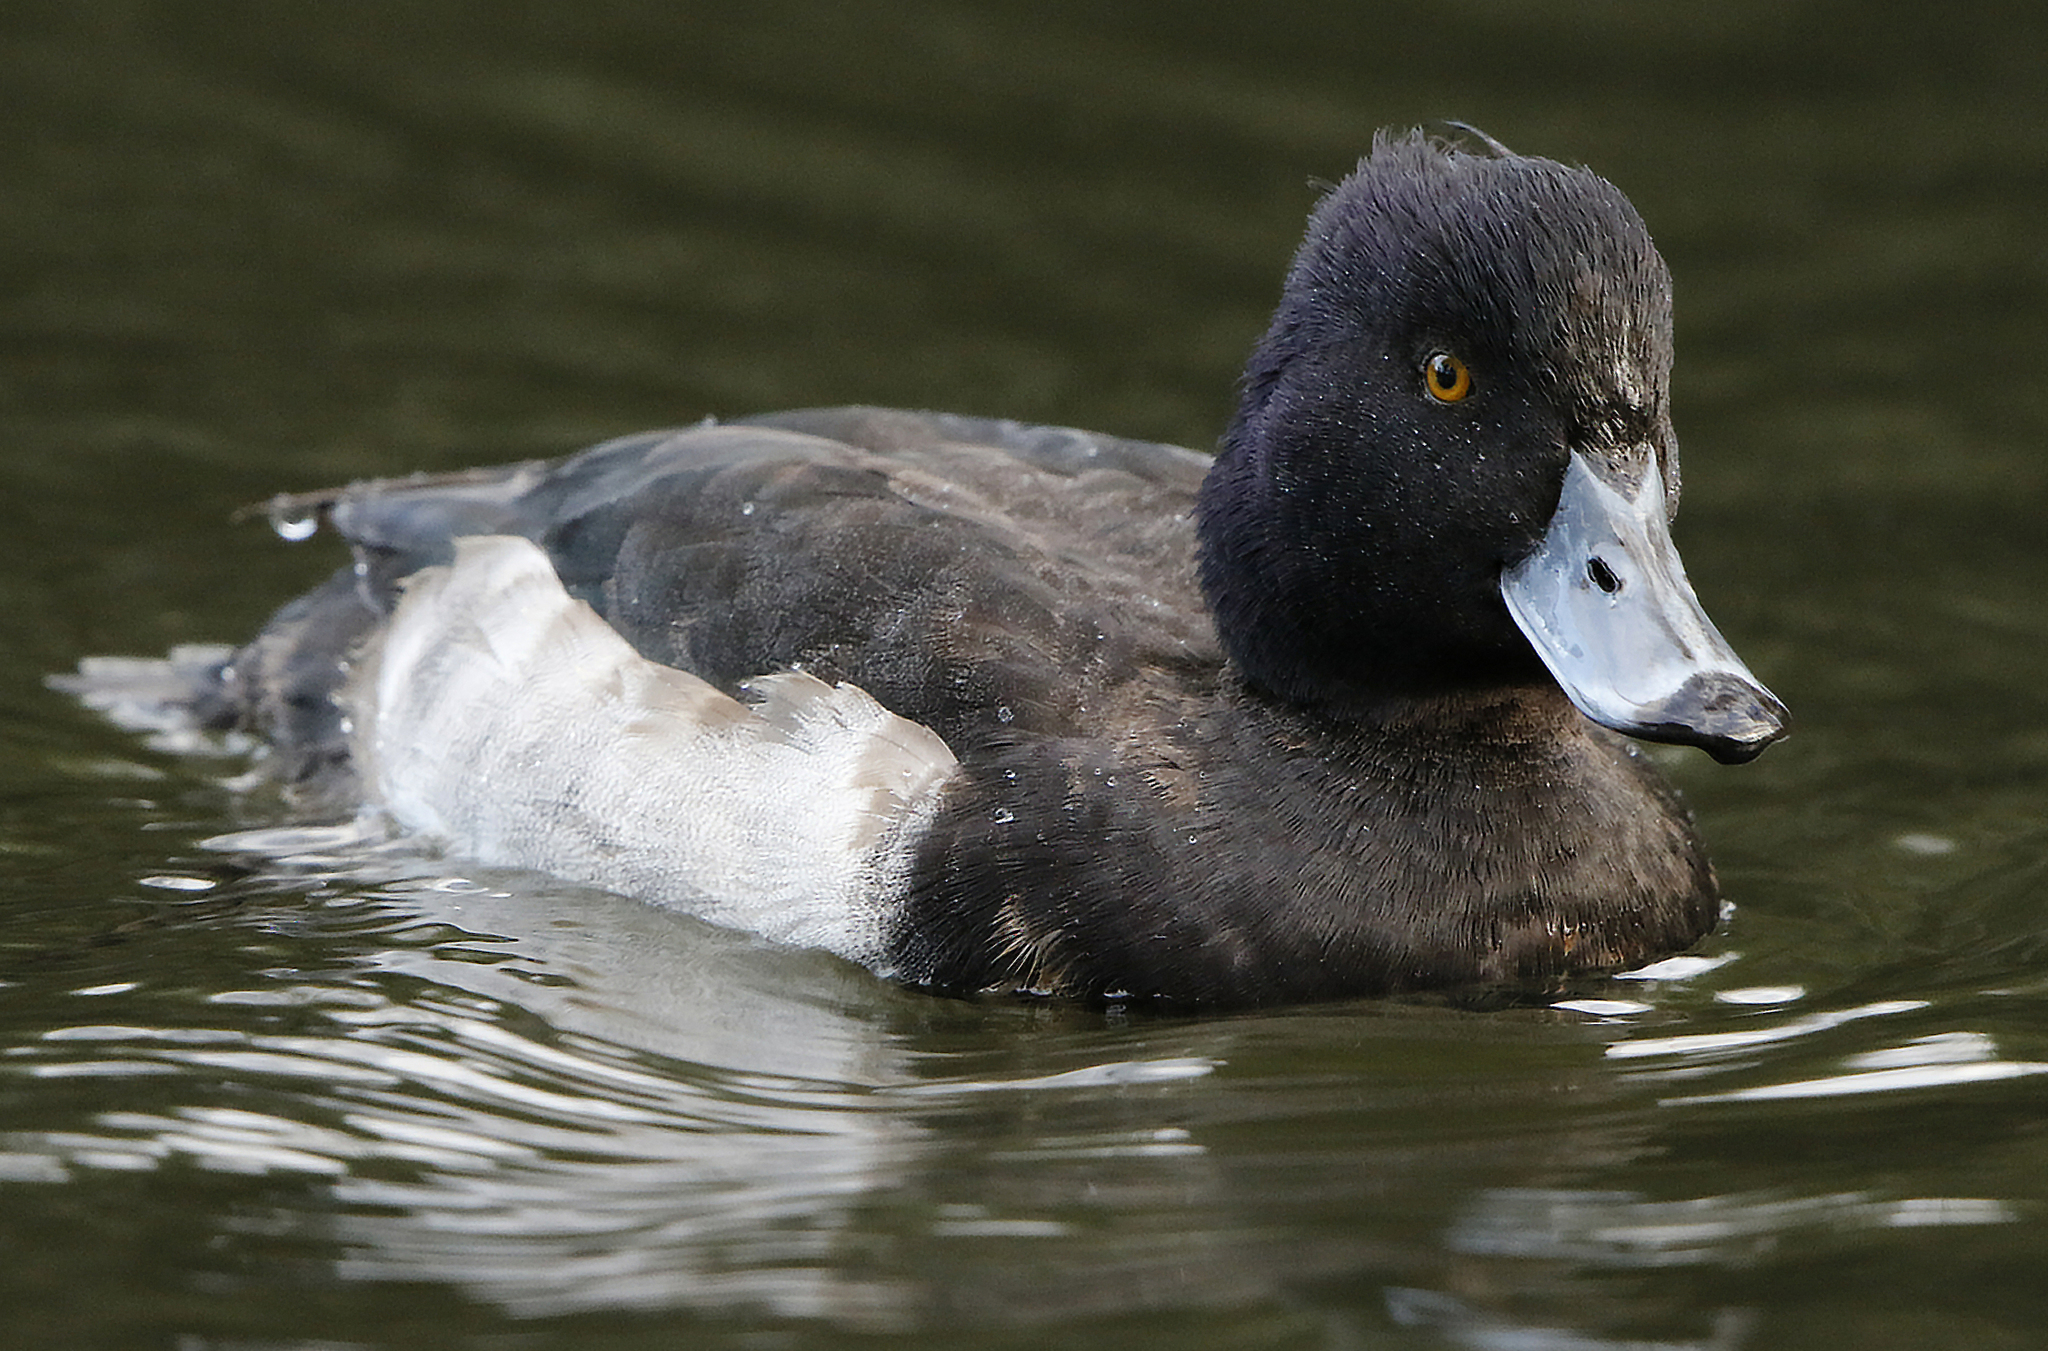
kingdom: Animalia
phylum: Chordata
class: Aves
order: Anseriformes
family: Anatidae
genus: Aythya
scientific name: Aythya fuligula
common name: Tufted duck
